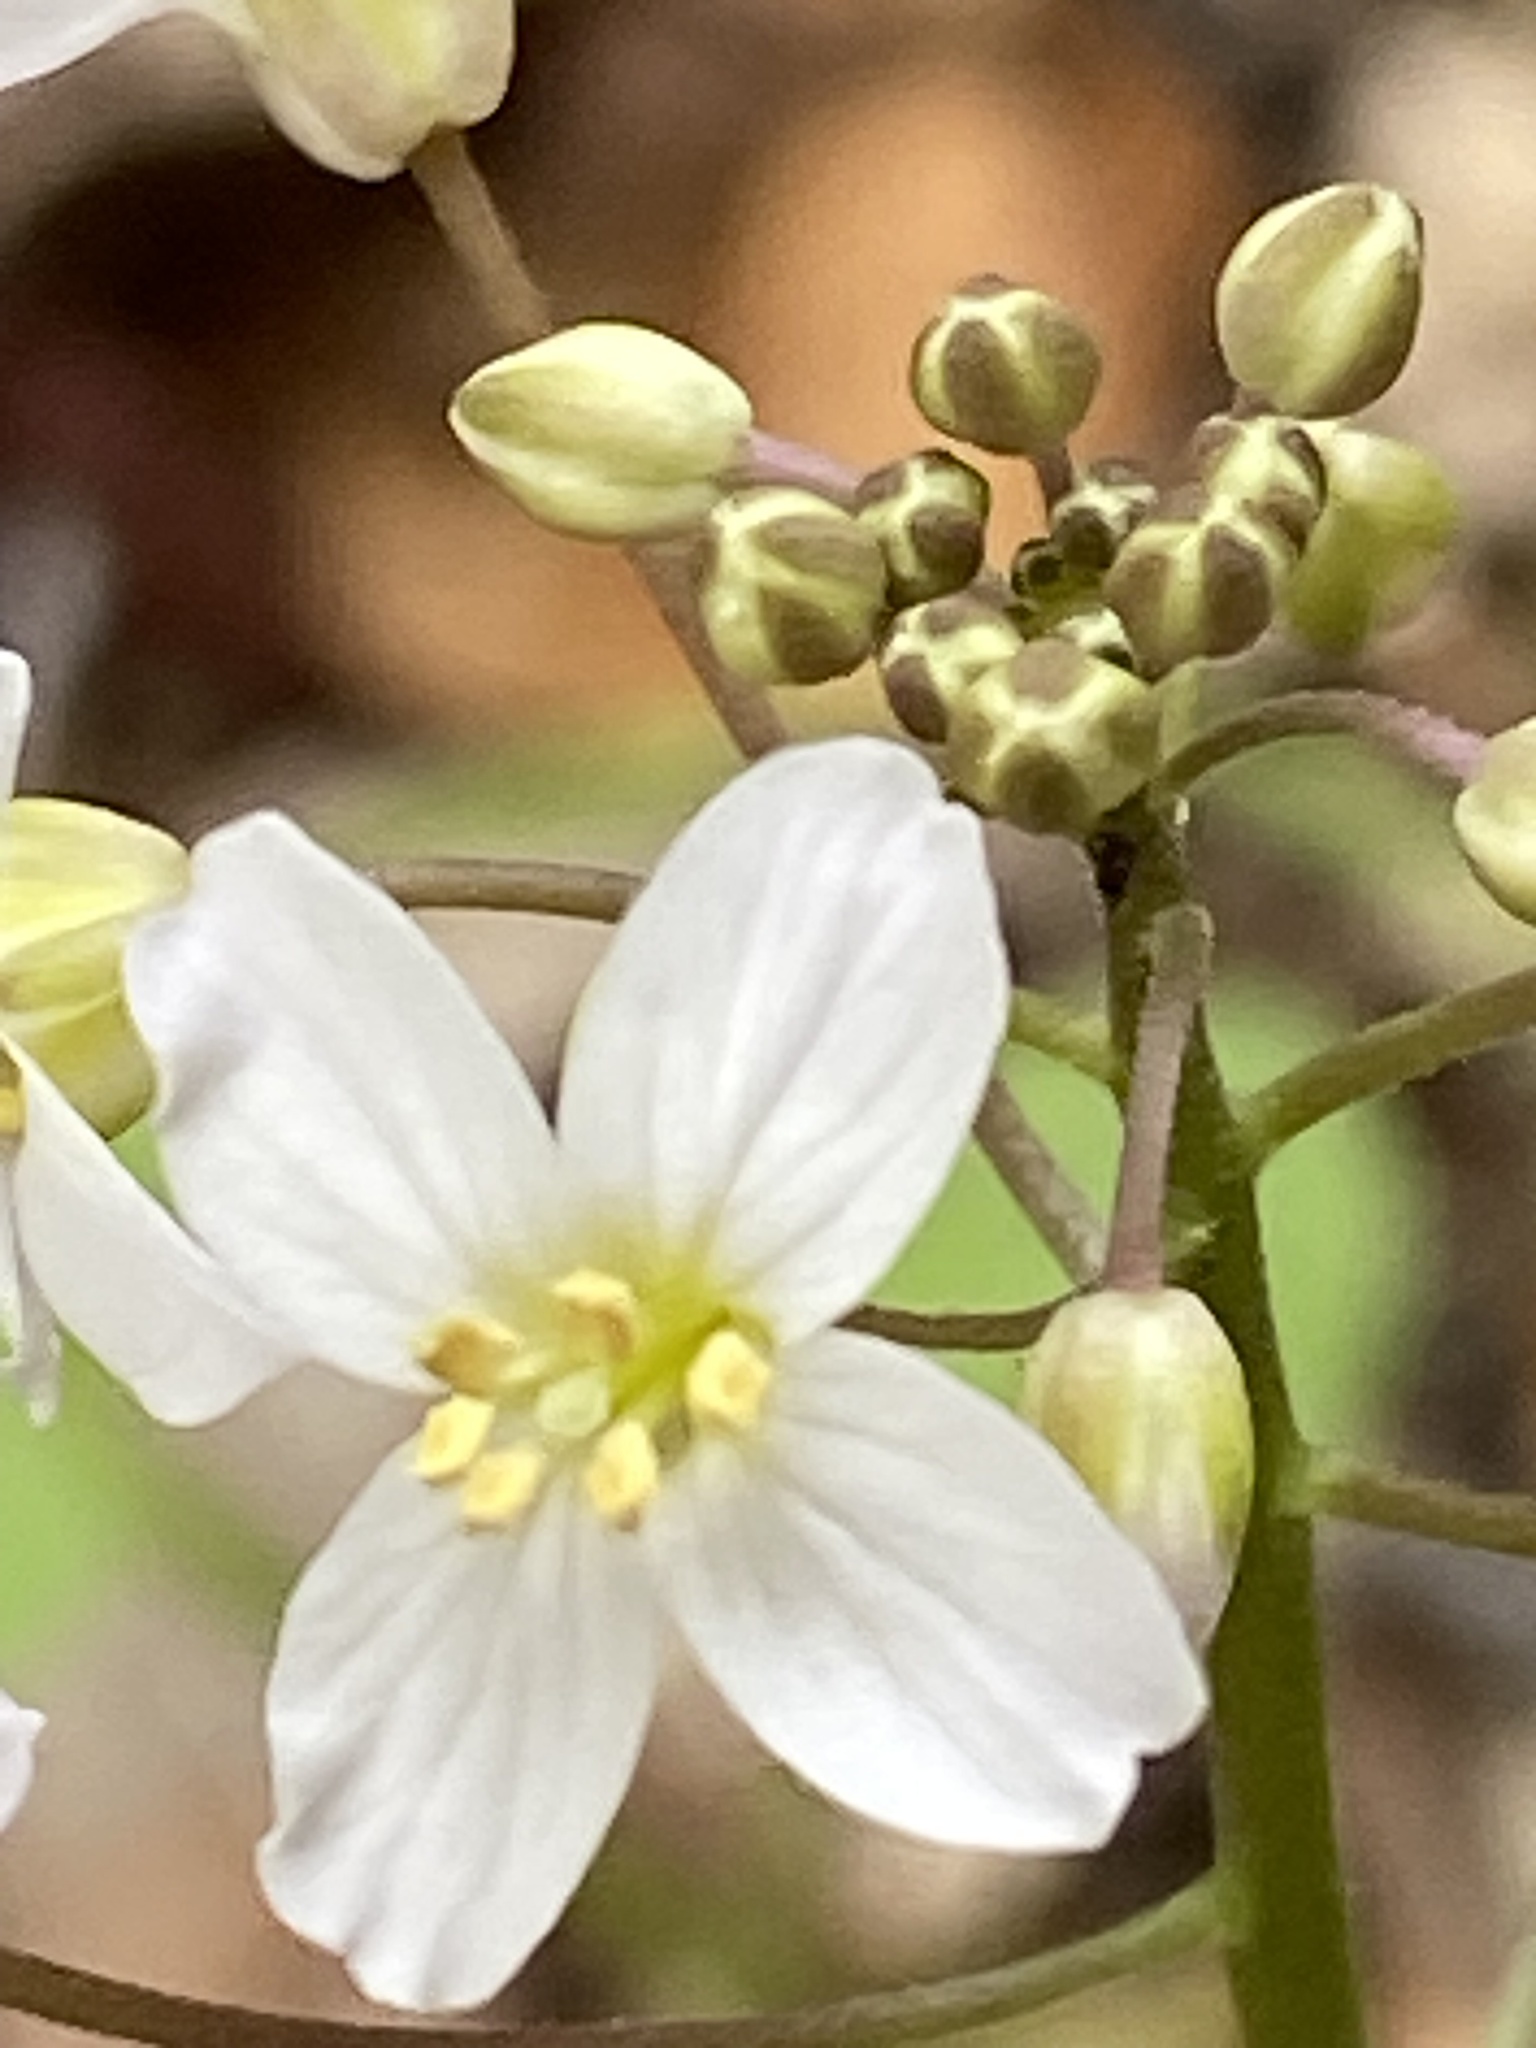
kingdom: Plantae
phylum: Tracheophyta
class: Magnoliopsida
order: Brassicales
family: Brassicaceae
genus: Cardamine
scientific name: Cardamine californica
